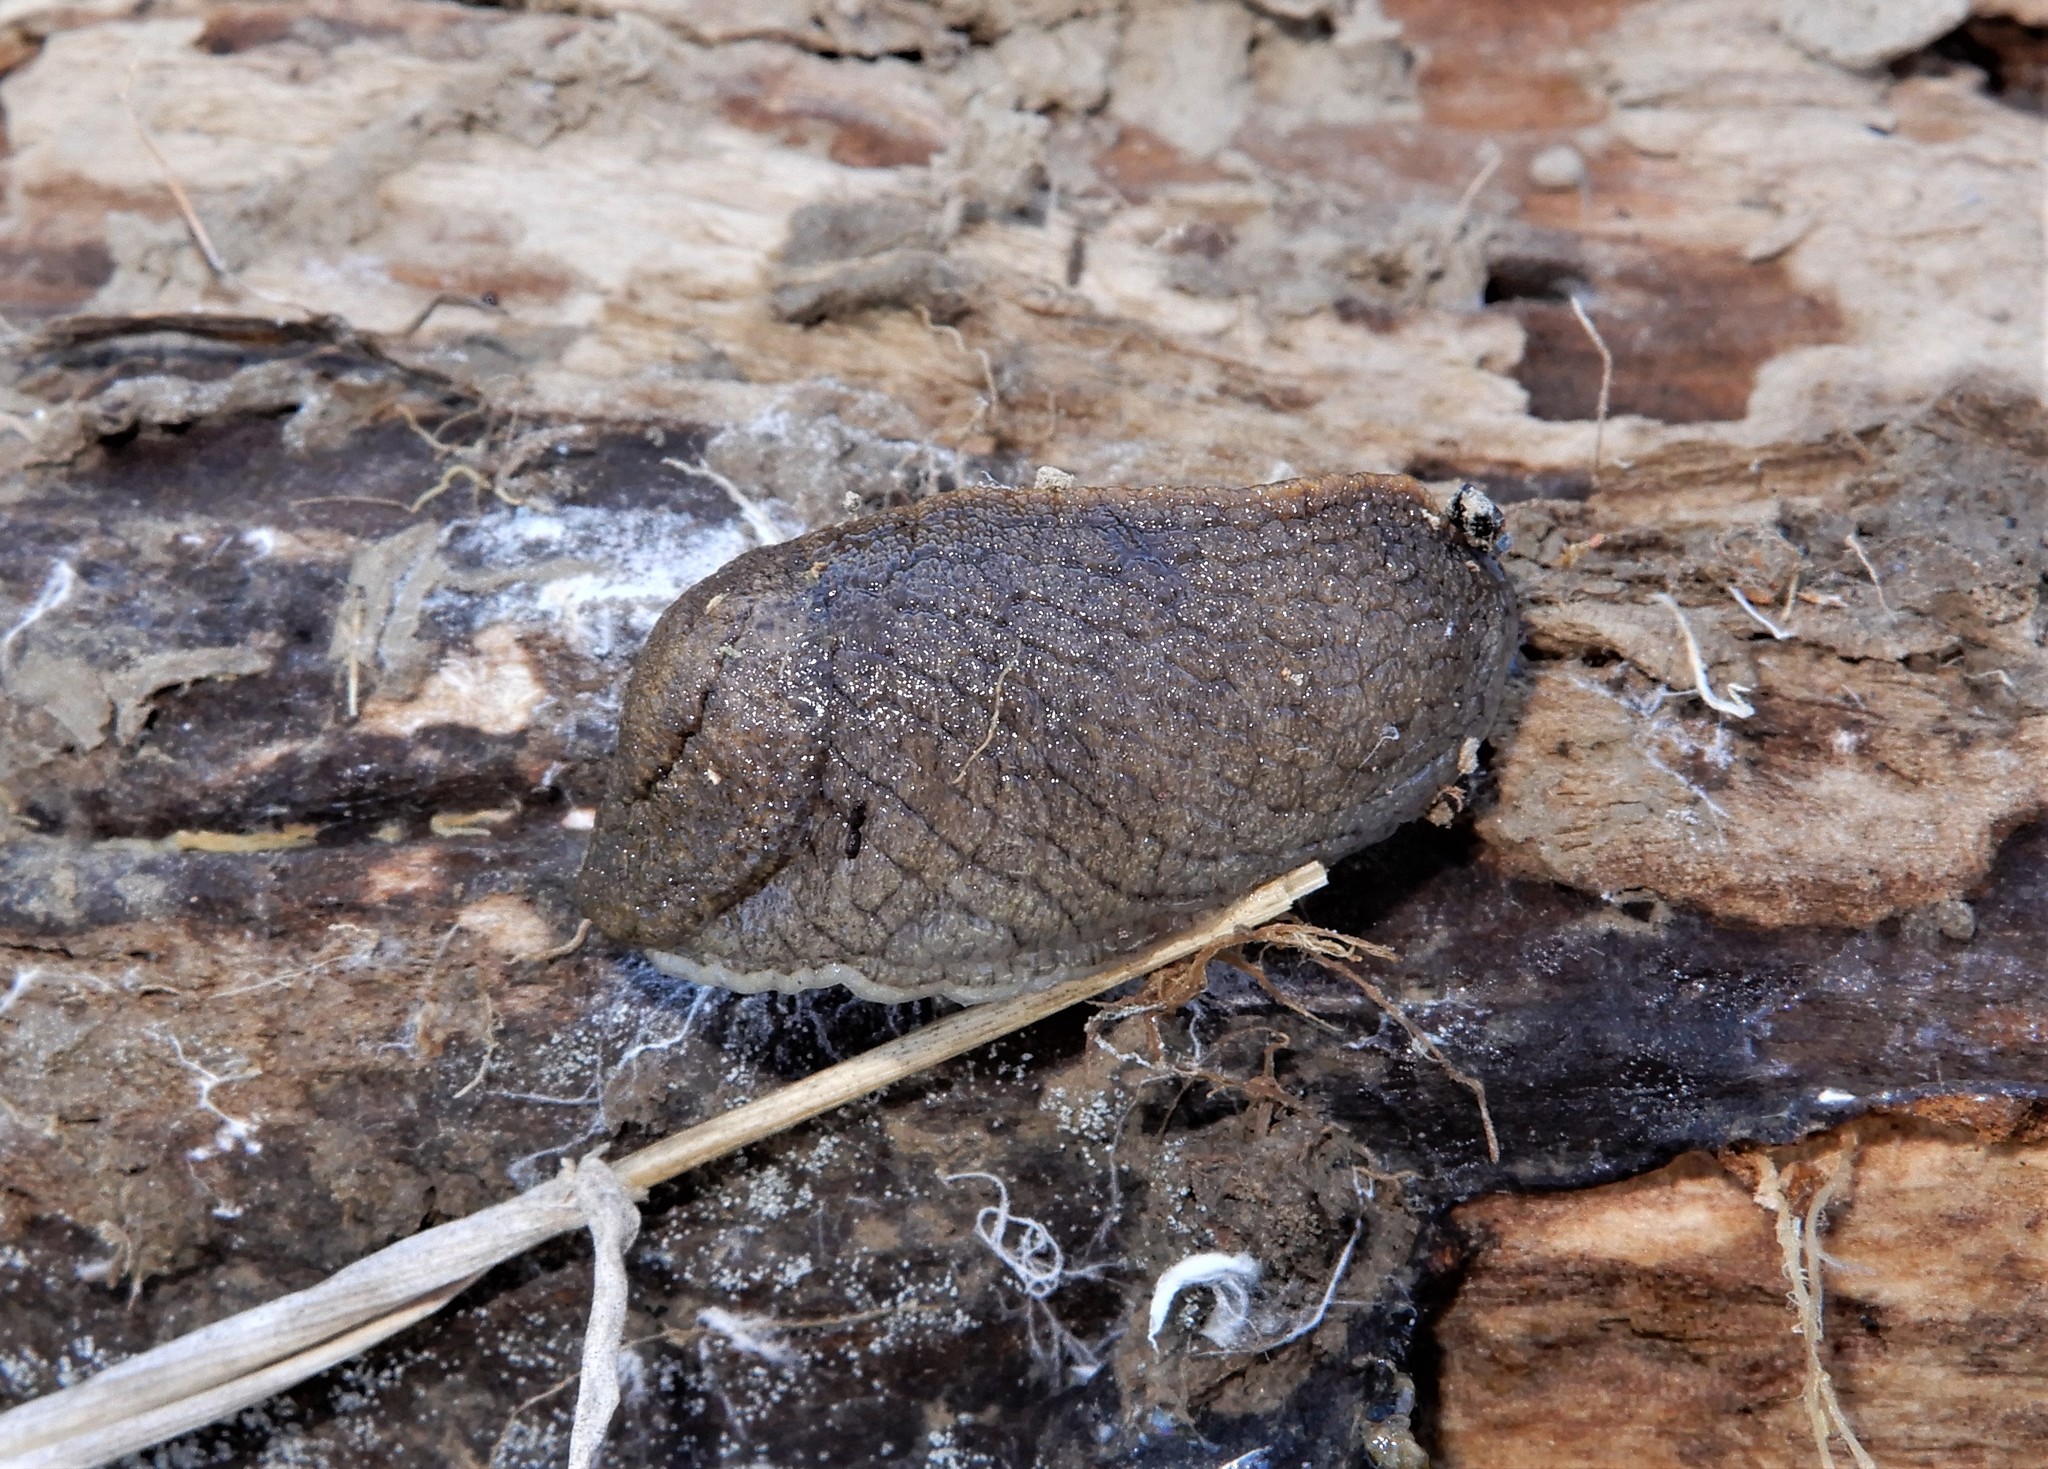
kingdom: Animalia
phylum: Mollusca
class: Gastropoda
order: Stylommatophora
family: Milacidae
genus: Tandonia
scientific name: Tandonia budapestensis
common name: Budapest slug
